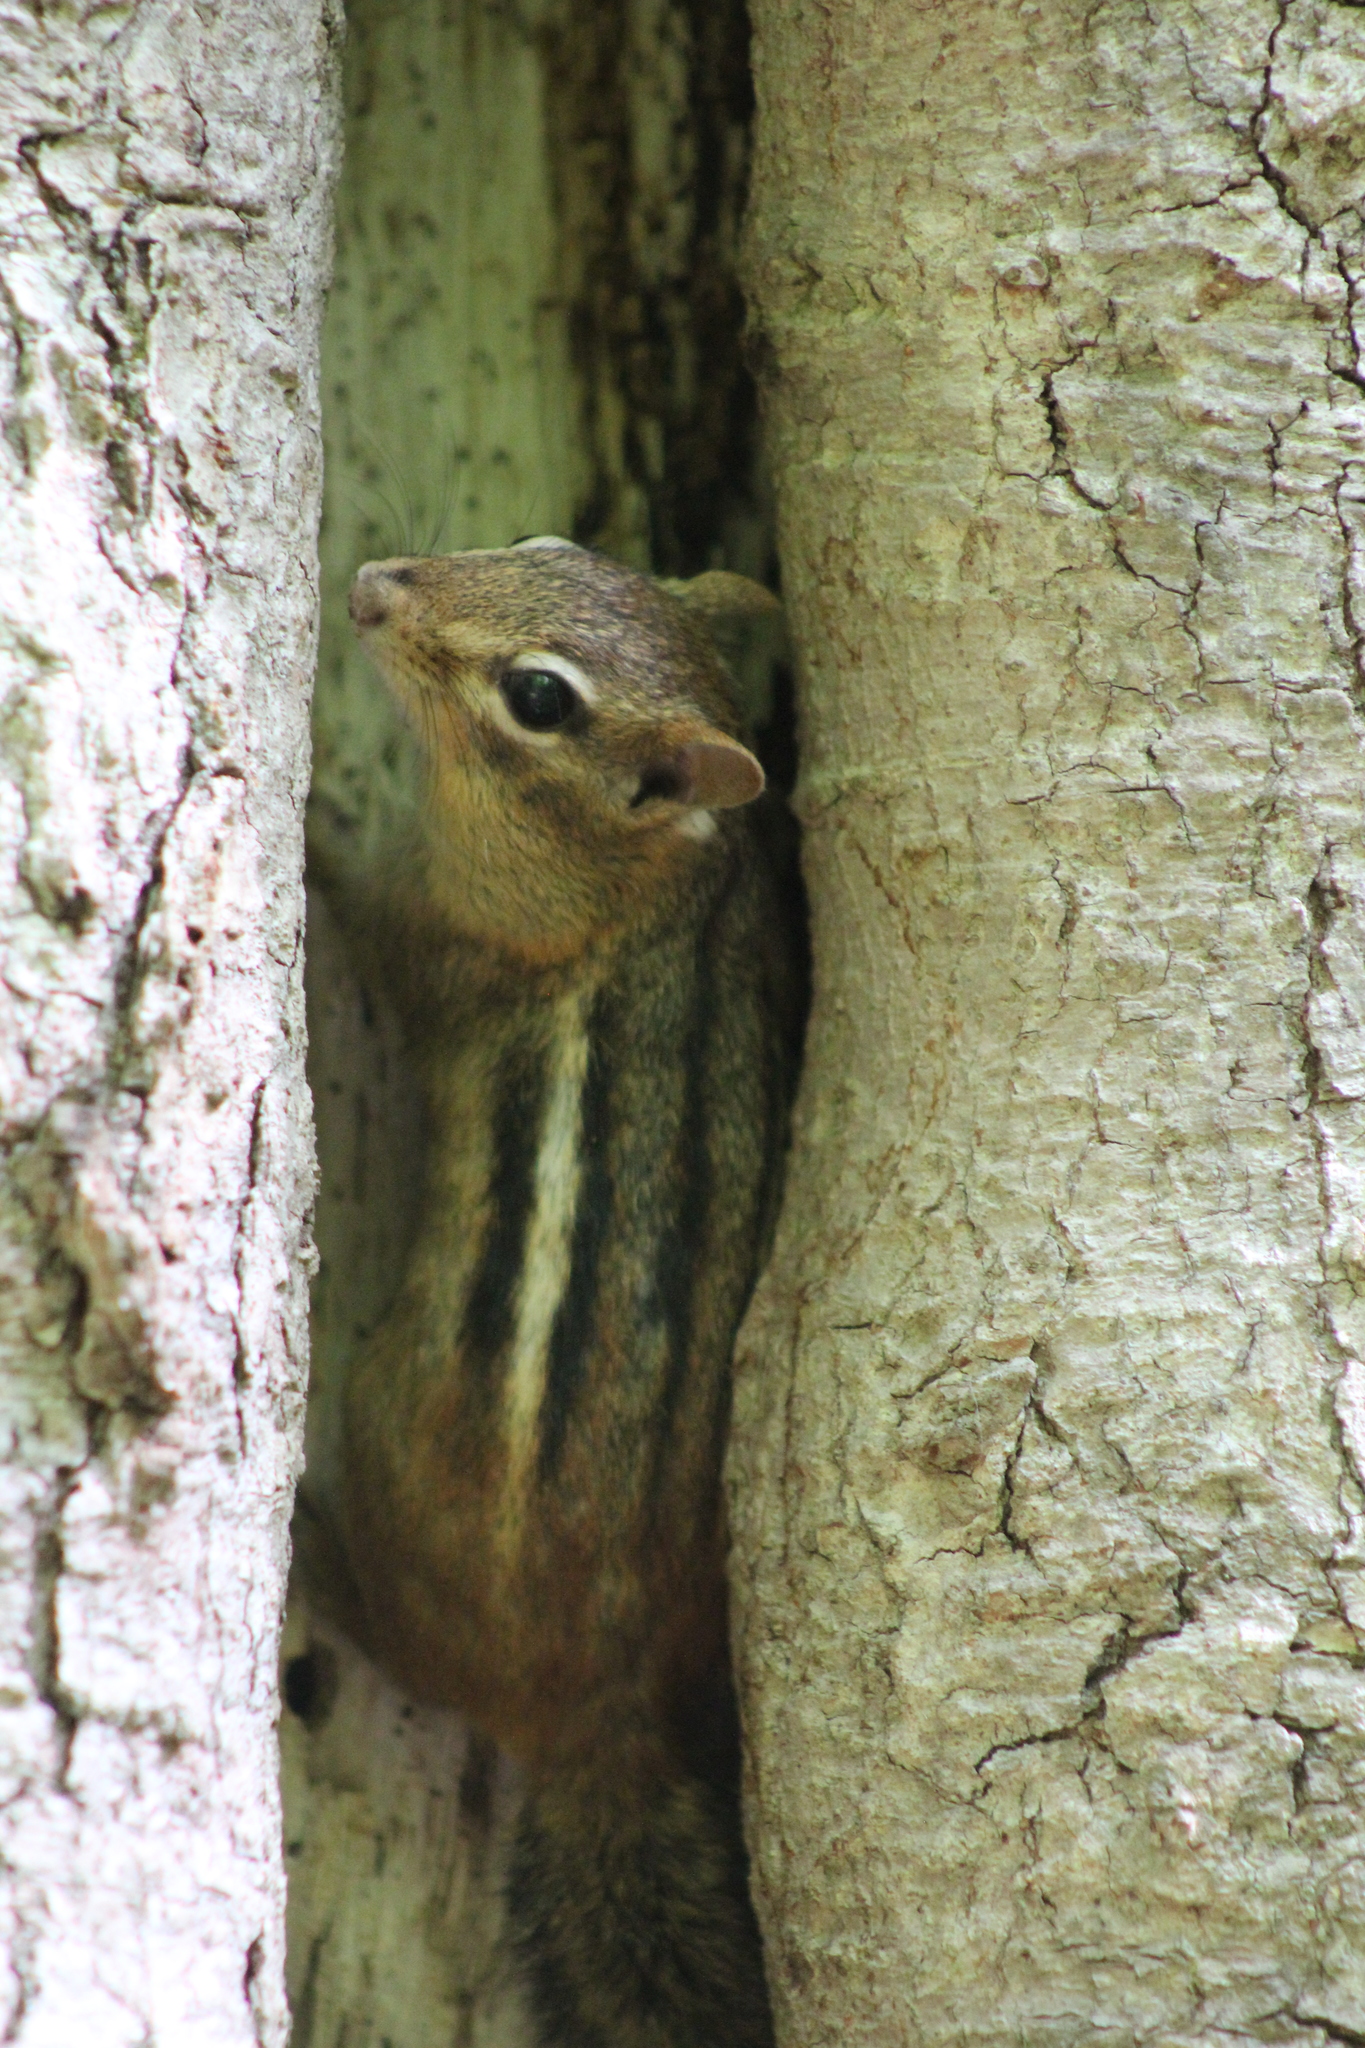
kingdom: Animalia
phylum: Chordata
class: Mammalia
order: Rodentia
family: Sciuridae
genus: Tamias
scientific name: Tamias striatus
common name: Eastern chipmunk
